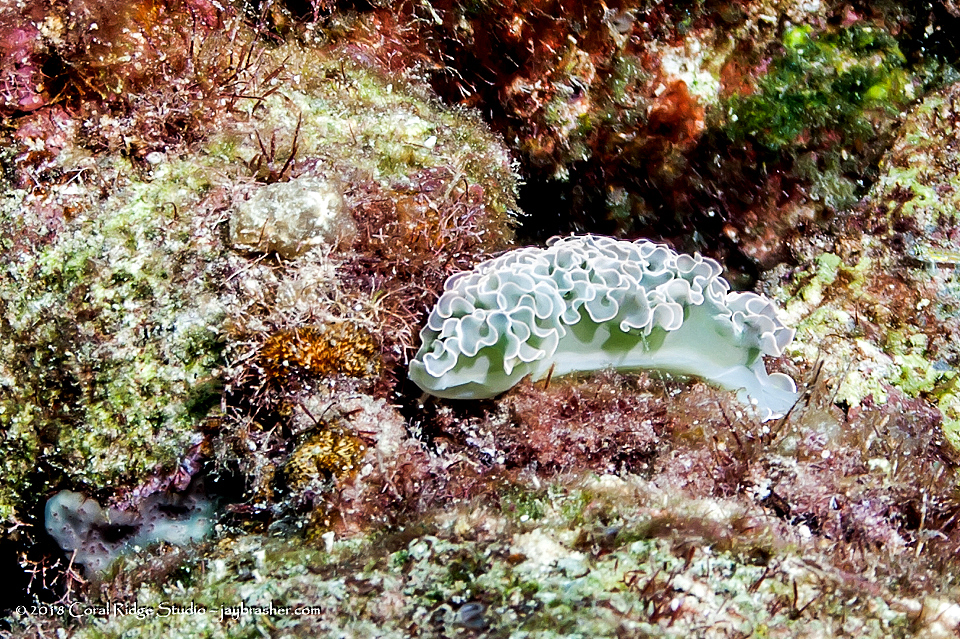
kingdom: Animalia
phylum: Mollusca
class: Gastropoda
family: Plakobranchidae
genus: Elysia
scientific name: Elysia crispata
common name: Lettuce slug
